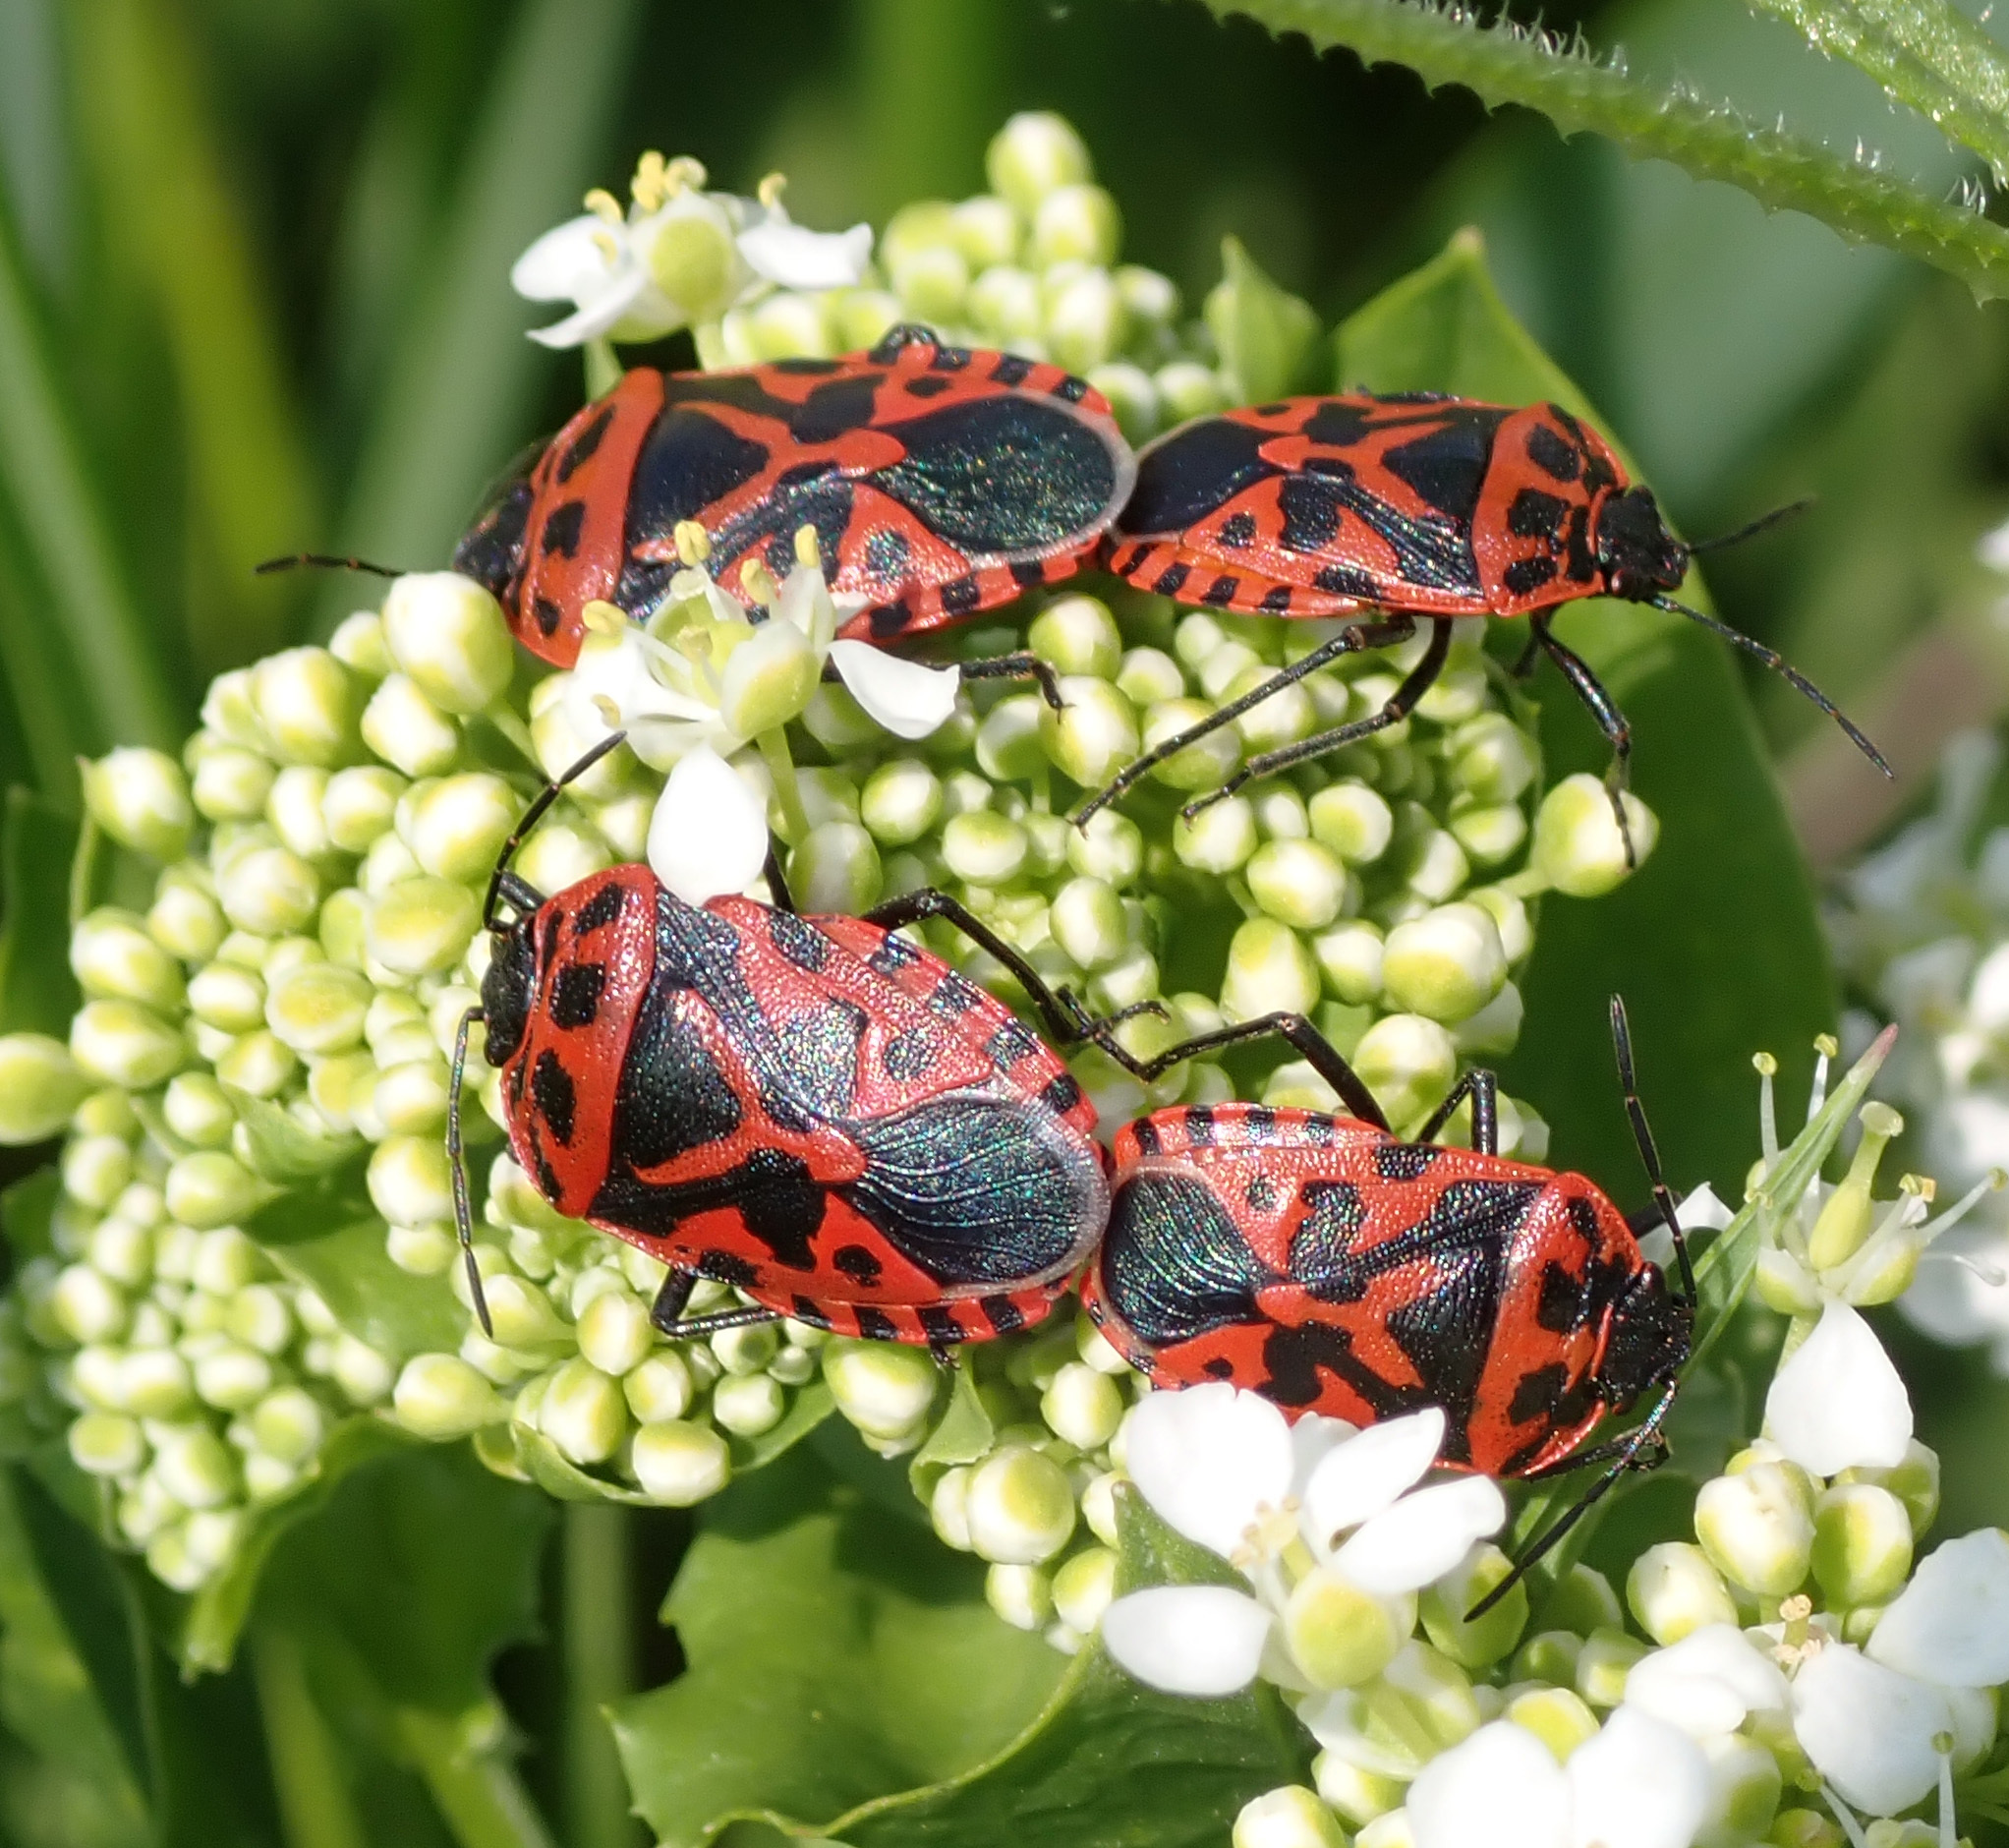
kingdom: Animalia
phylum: Arthropoda
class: Insecta
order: Hemiptera
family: Pentatomidae
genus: Eurydema
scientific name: Eurydema ventralis
